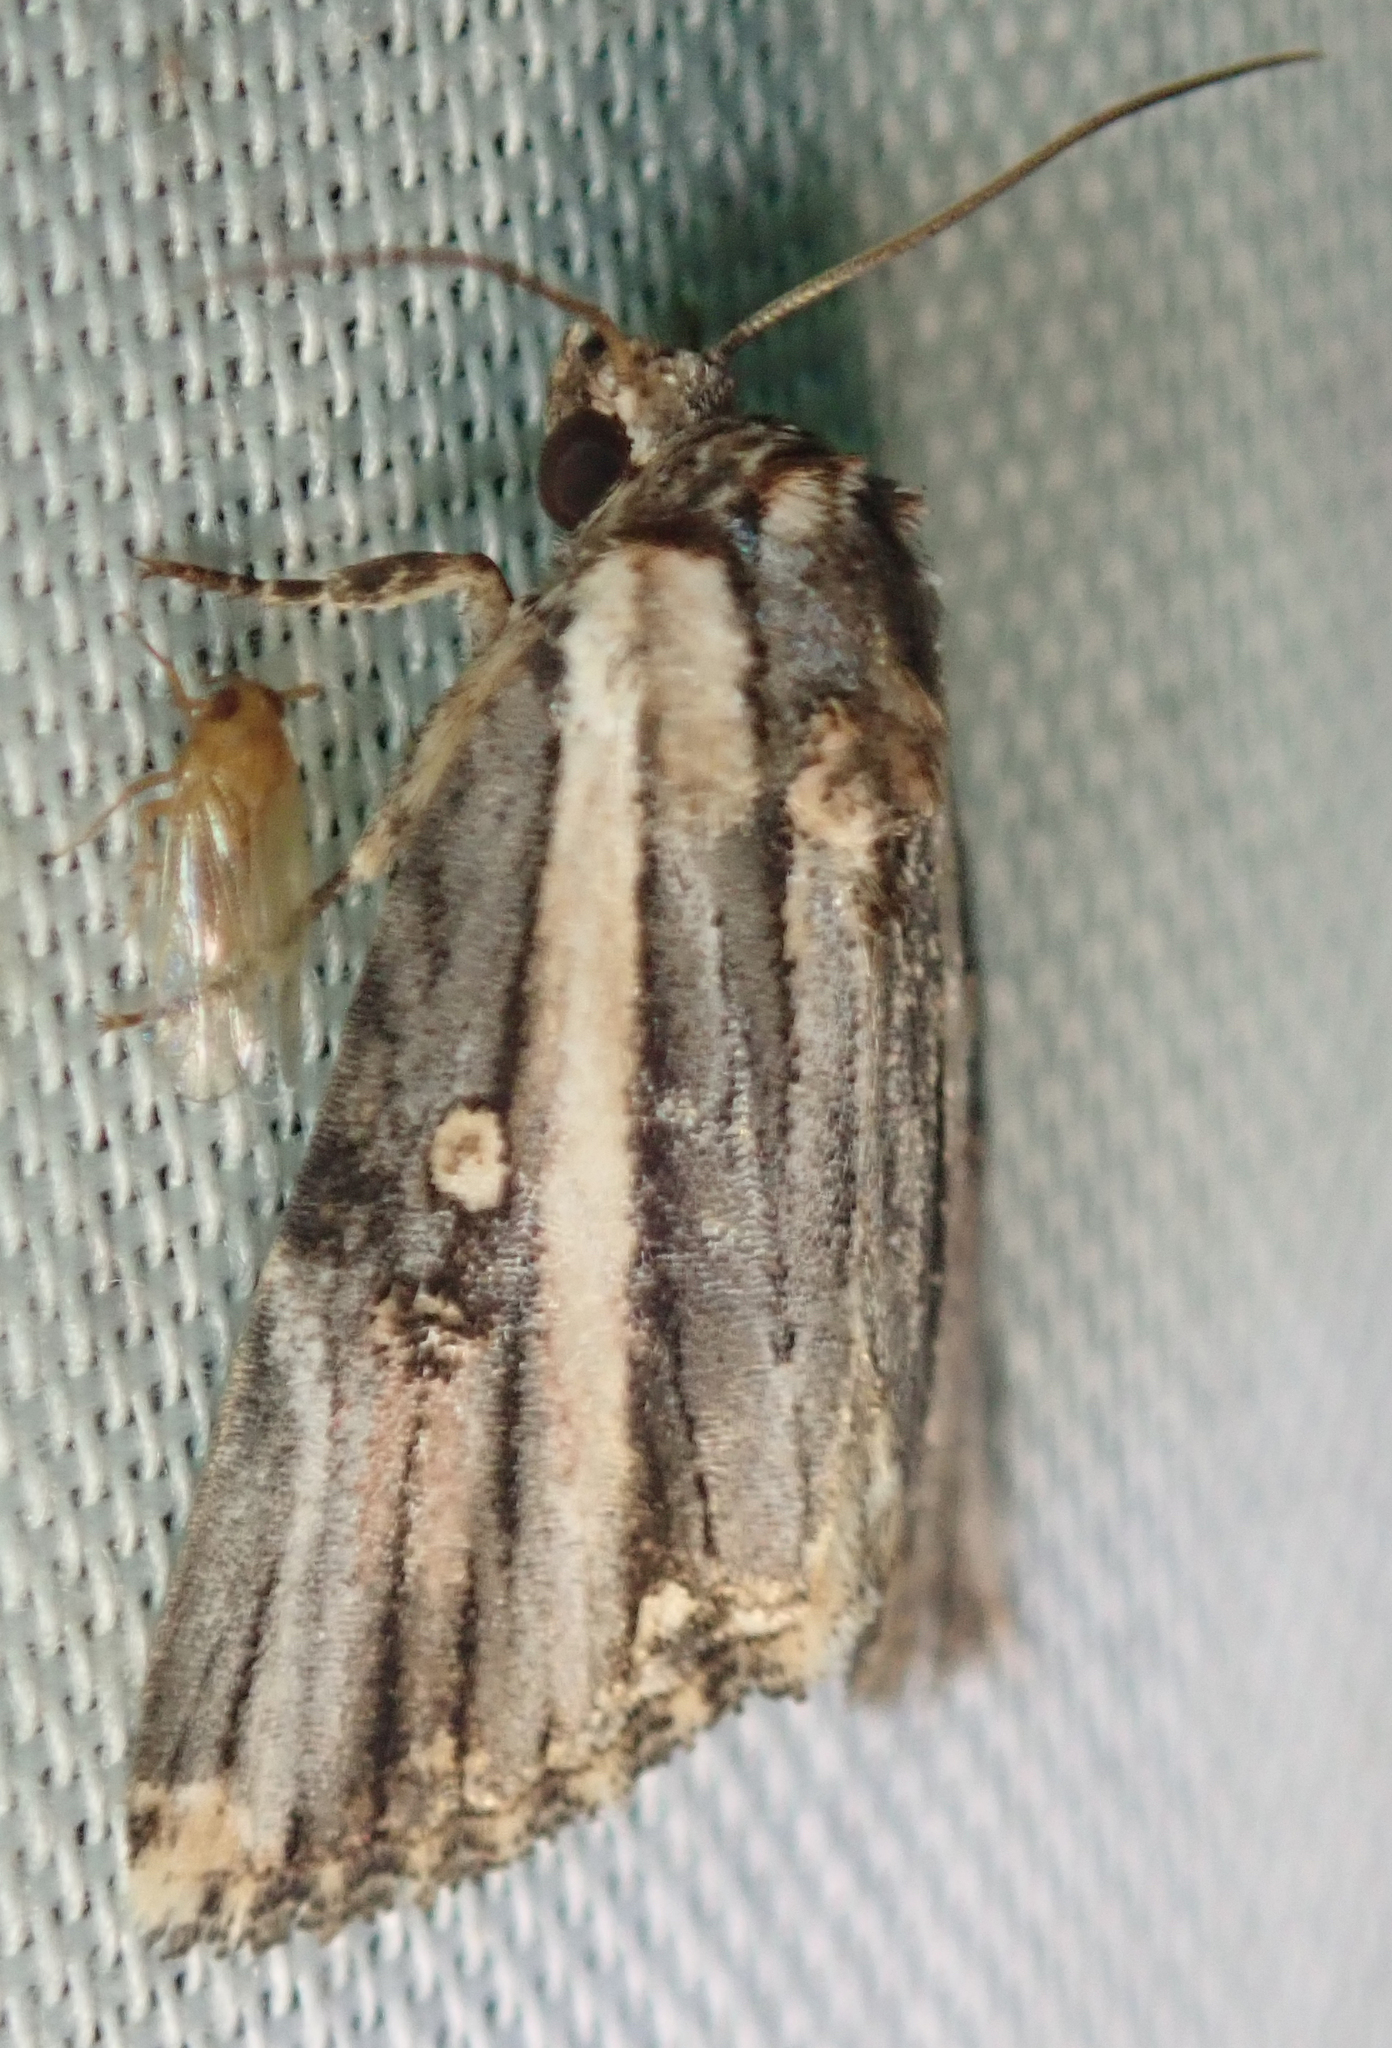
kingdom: Animalia
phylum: Arthropoda
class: Insecta
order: Lepidoptera
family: Noctuidae
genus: Anedhella
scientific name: Anedhella rectiradiata
